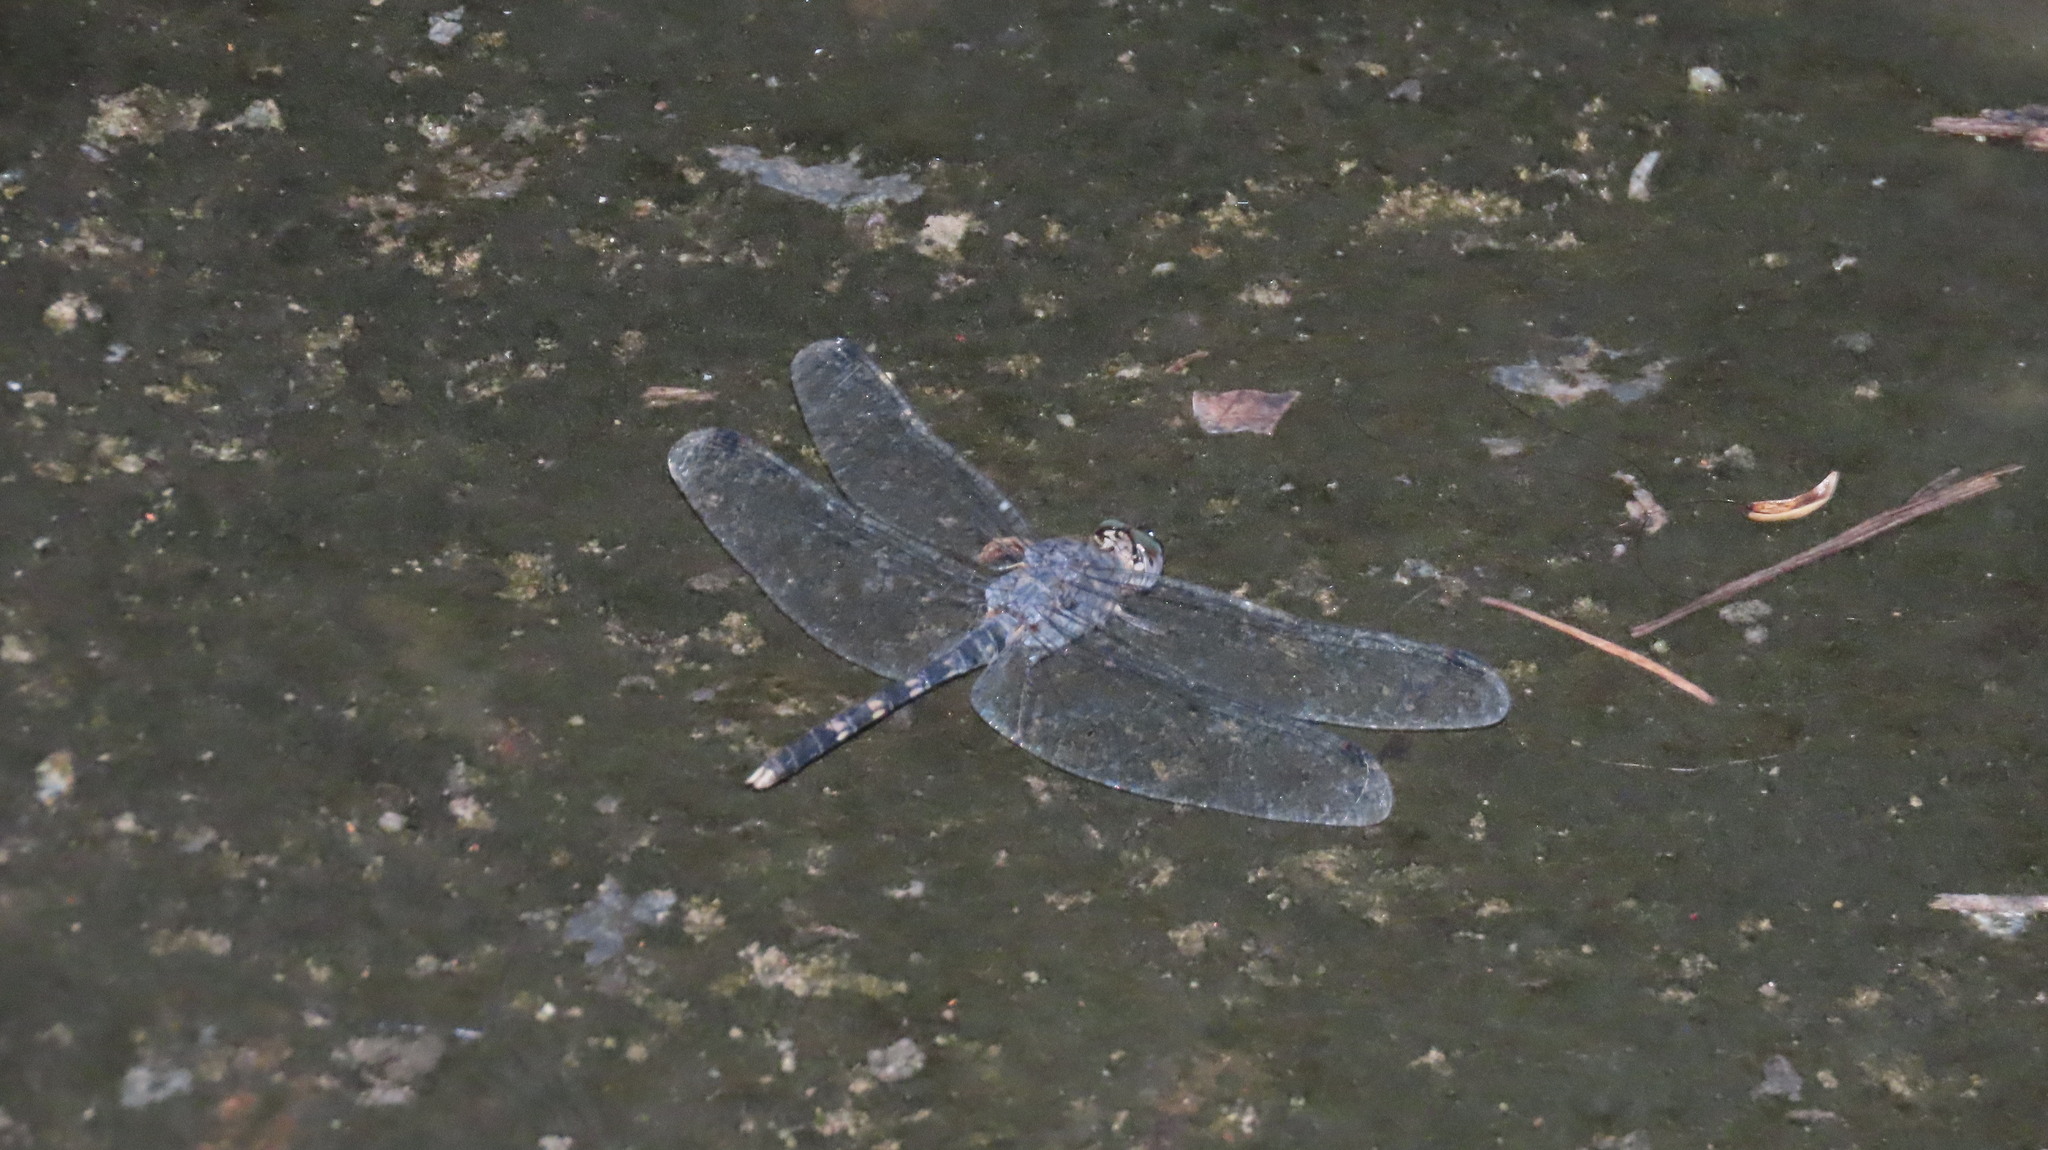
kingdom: Animalia
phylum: Arthropoda
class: Insecta
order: Odonata
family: Libellulidae
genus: Bradinopyga
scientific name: Bradinopyga geminata
